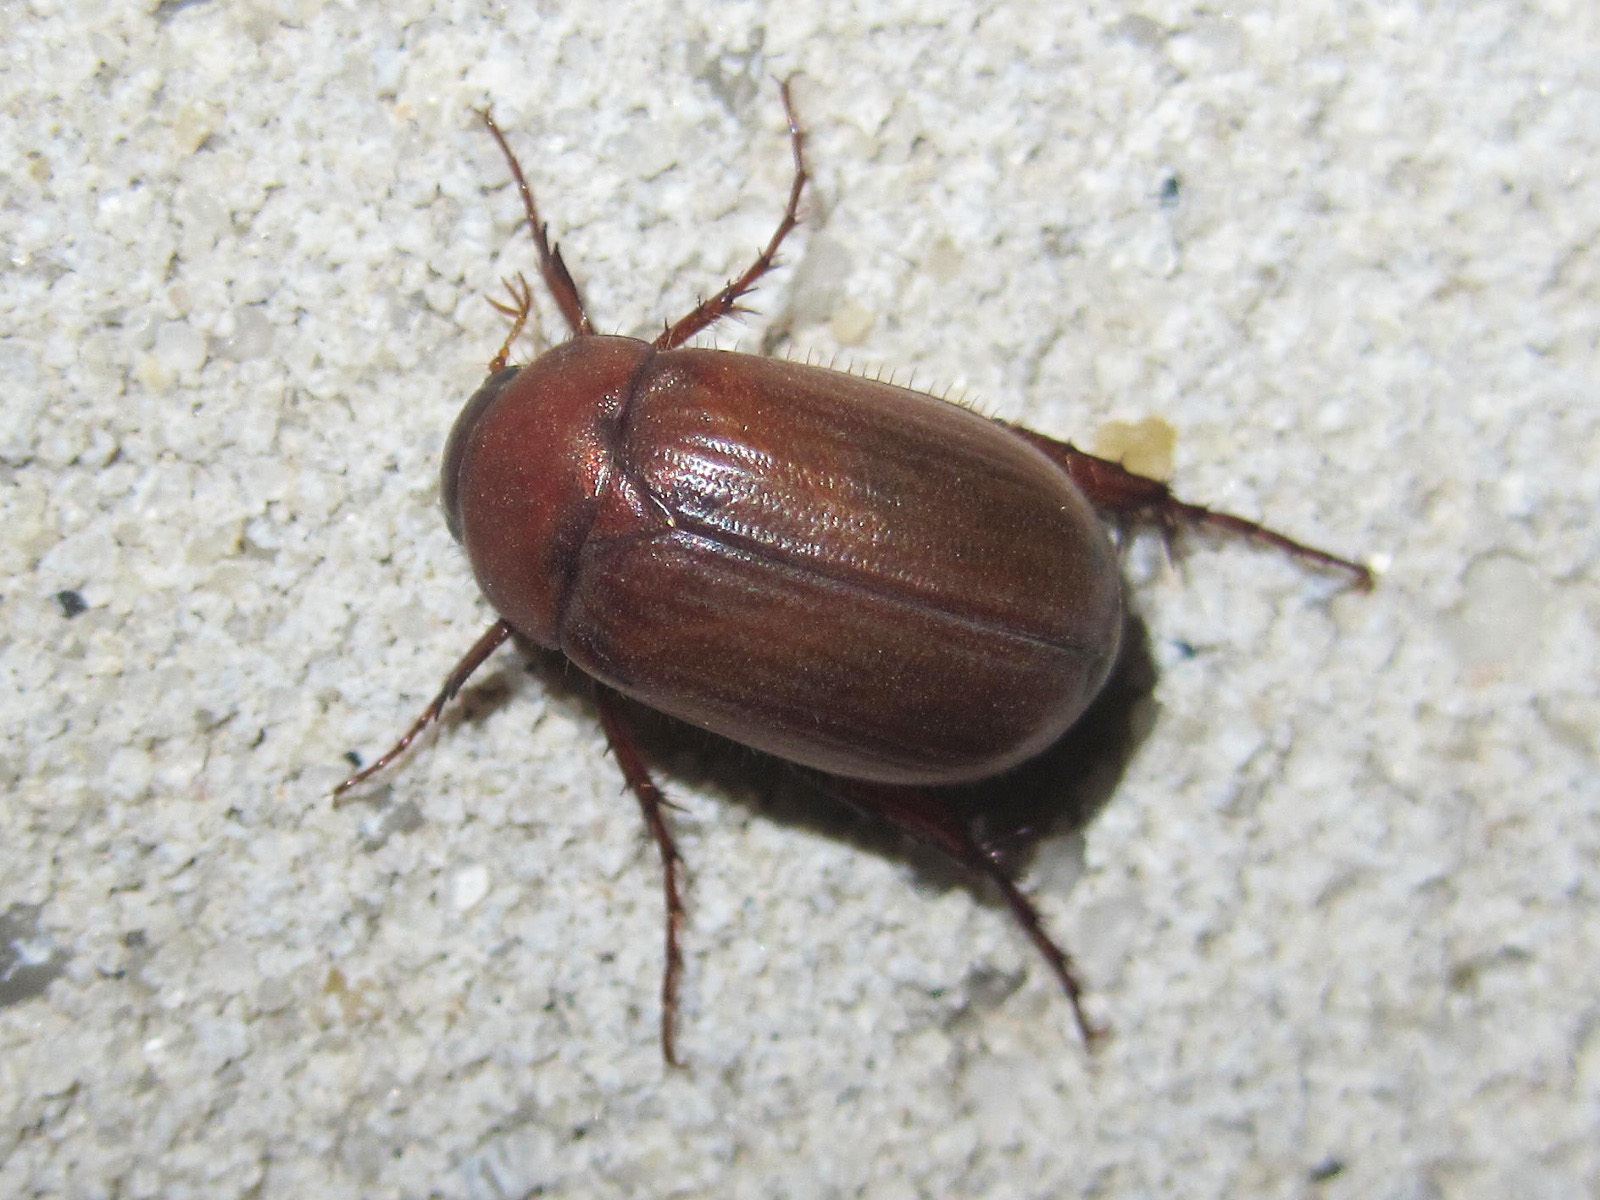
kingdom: Animalia
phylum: Arthropoda
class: Insecta
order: Coleoptera
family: Scarabaeidae
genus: Serica
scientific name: Serica brunnea
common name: Brown chafer
